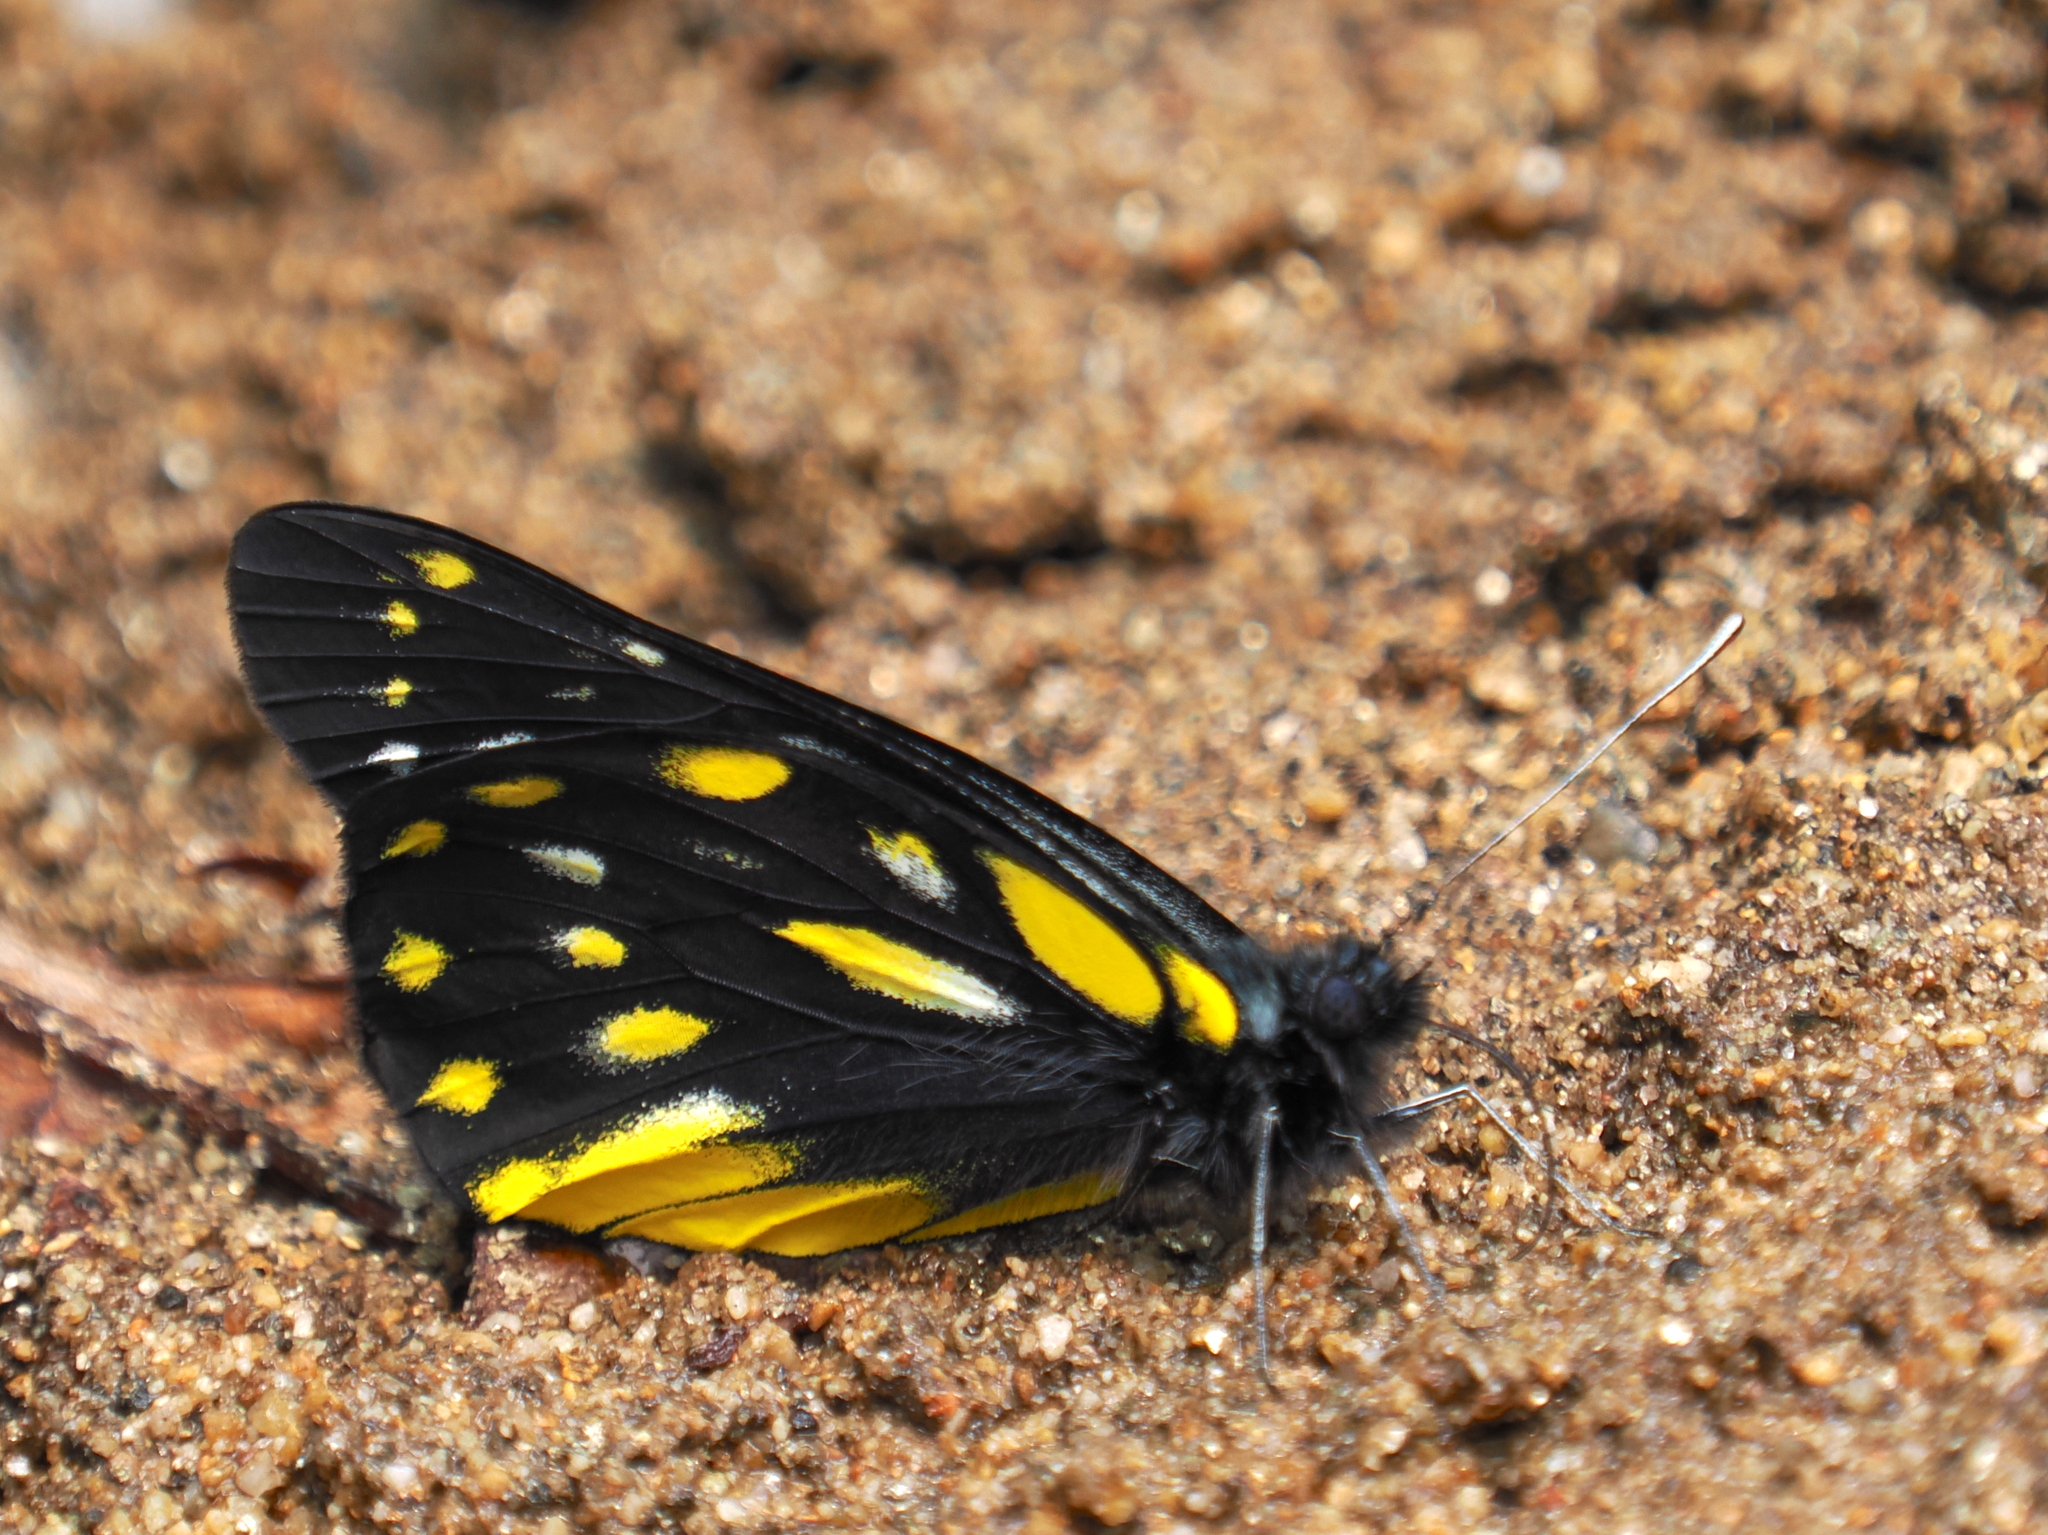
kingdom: Animalia
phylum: Arthropoda
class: Insecta
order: Lepidoptera
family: Pieridae
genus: Delias
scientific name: Delias sanaca
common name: Pale jezebel
